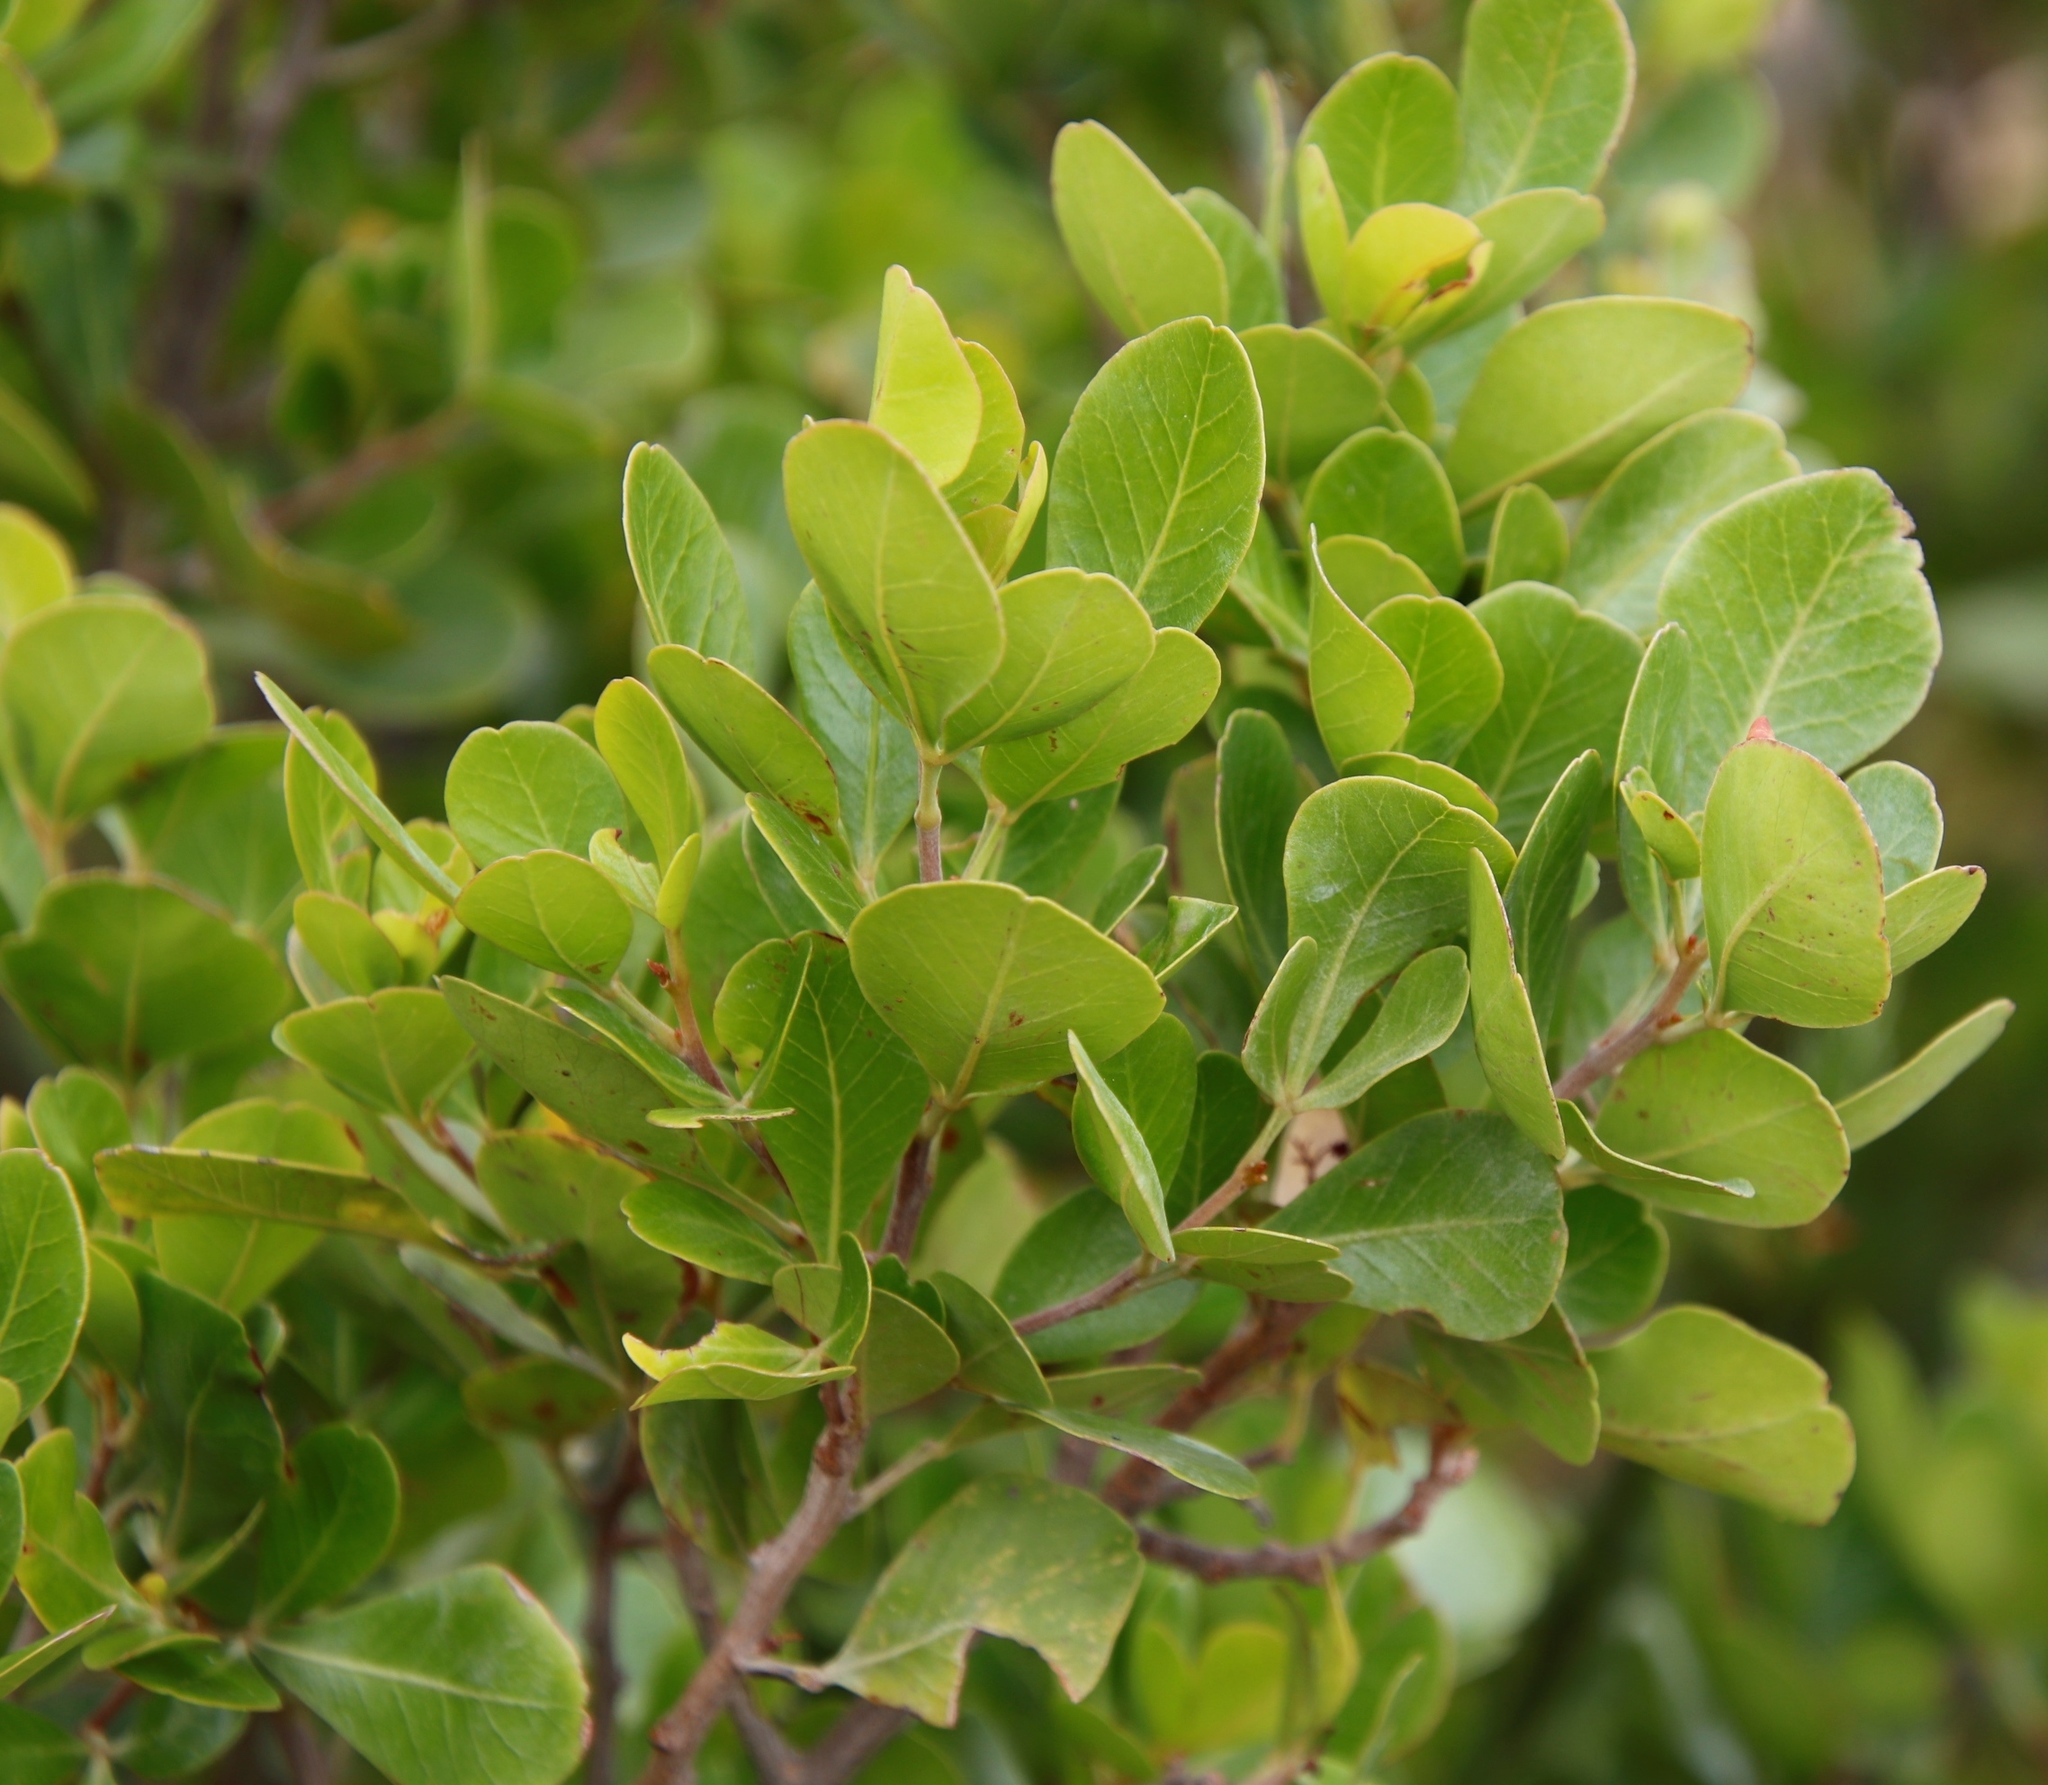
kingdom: Plantae
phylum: Tracheophyta
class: Magnoliopsida
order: Sapindales
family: Anacardiaceae
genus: Searsia
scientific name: Searsia lucida
